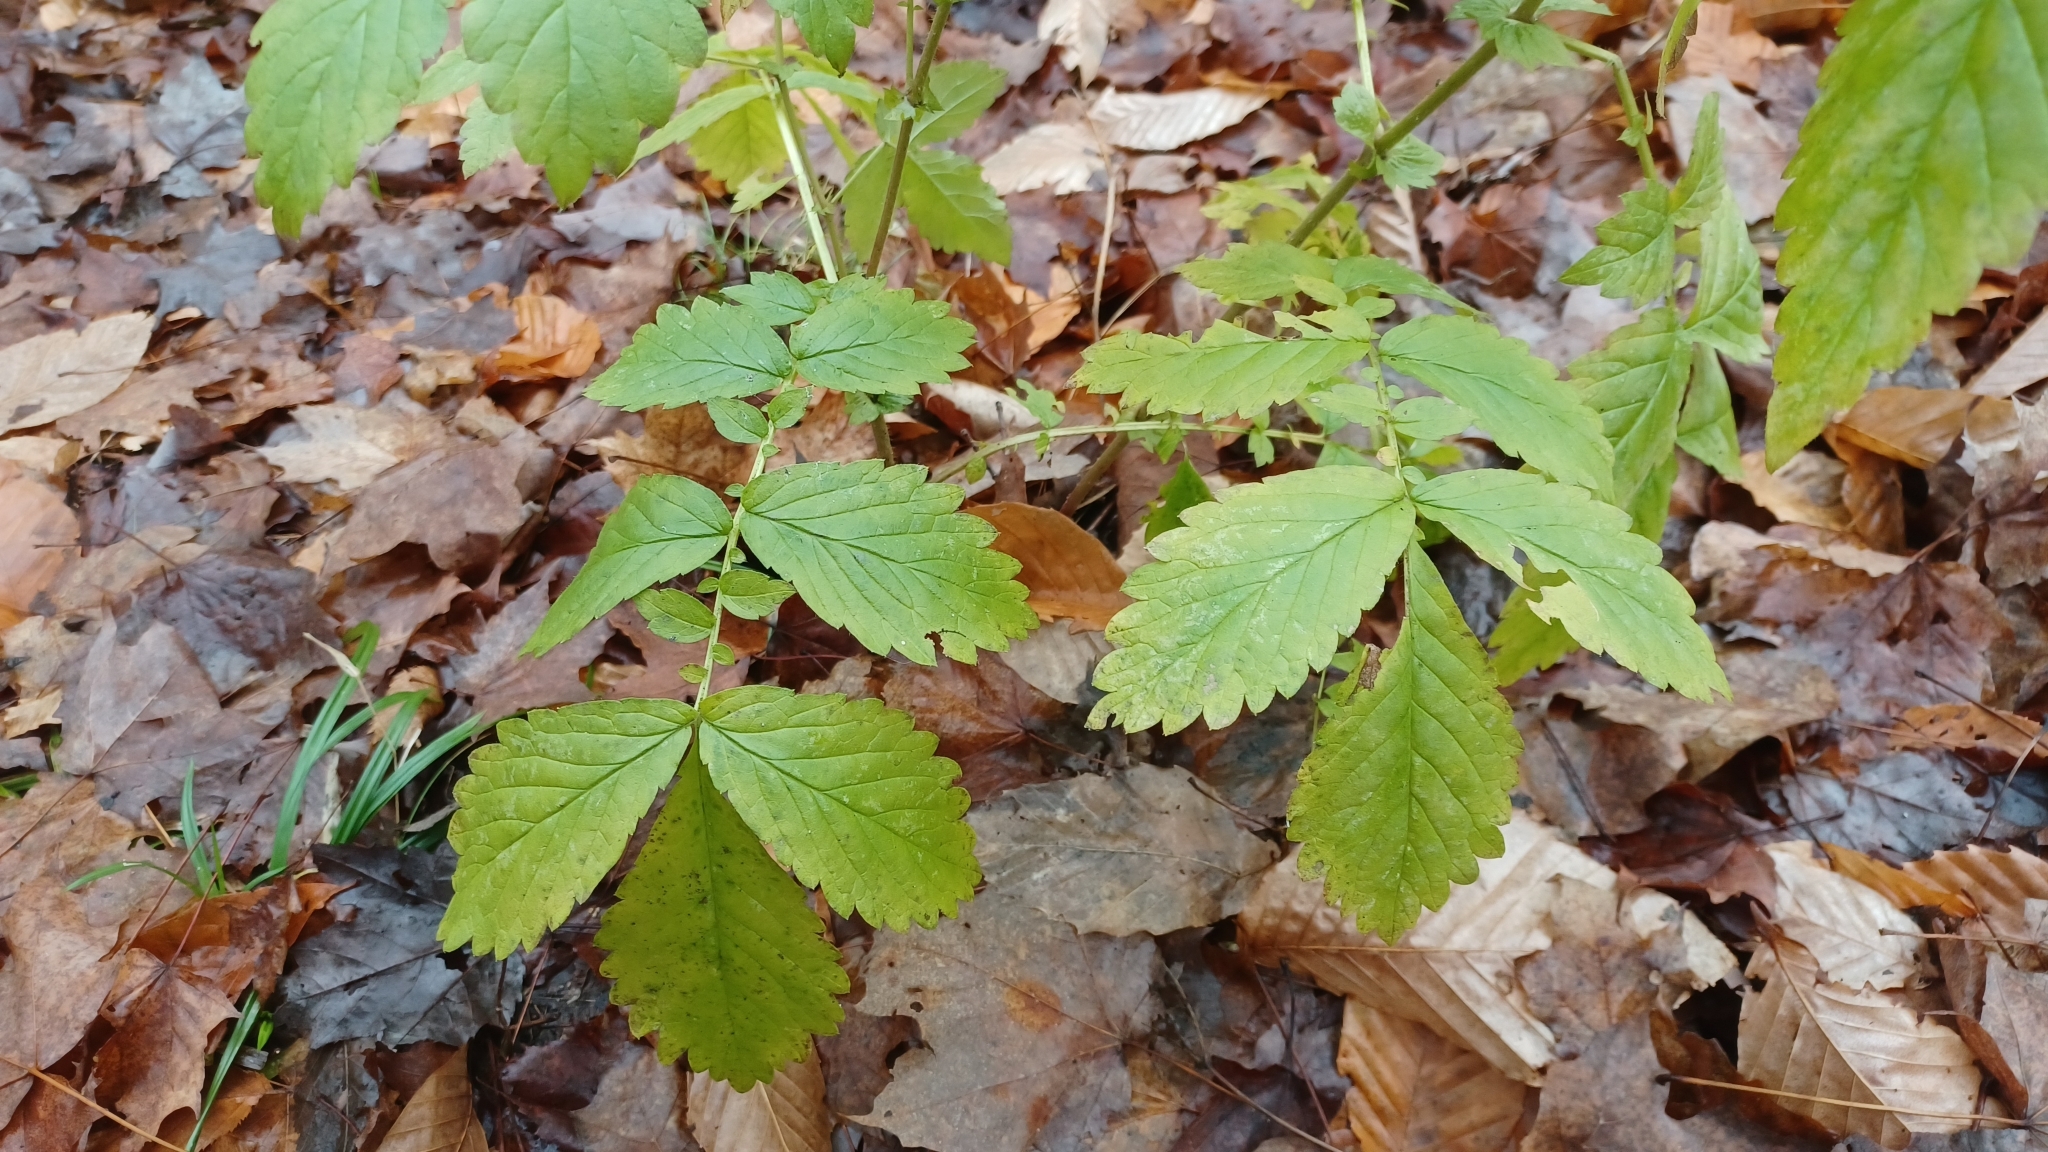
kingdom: Plantae
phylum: Tracheophyta
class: Magnoliopsida
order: Rosales
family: Rosaceae
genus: Agrimonia
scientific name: Agrimonia gryposepala
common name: Common agrimony
